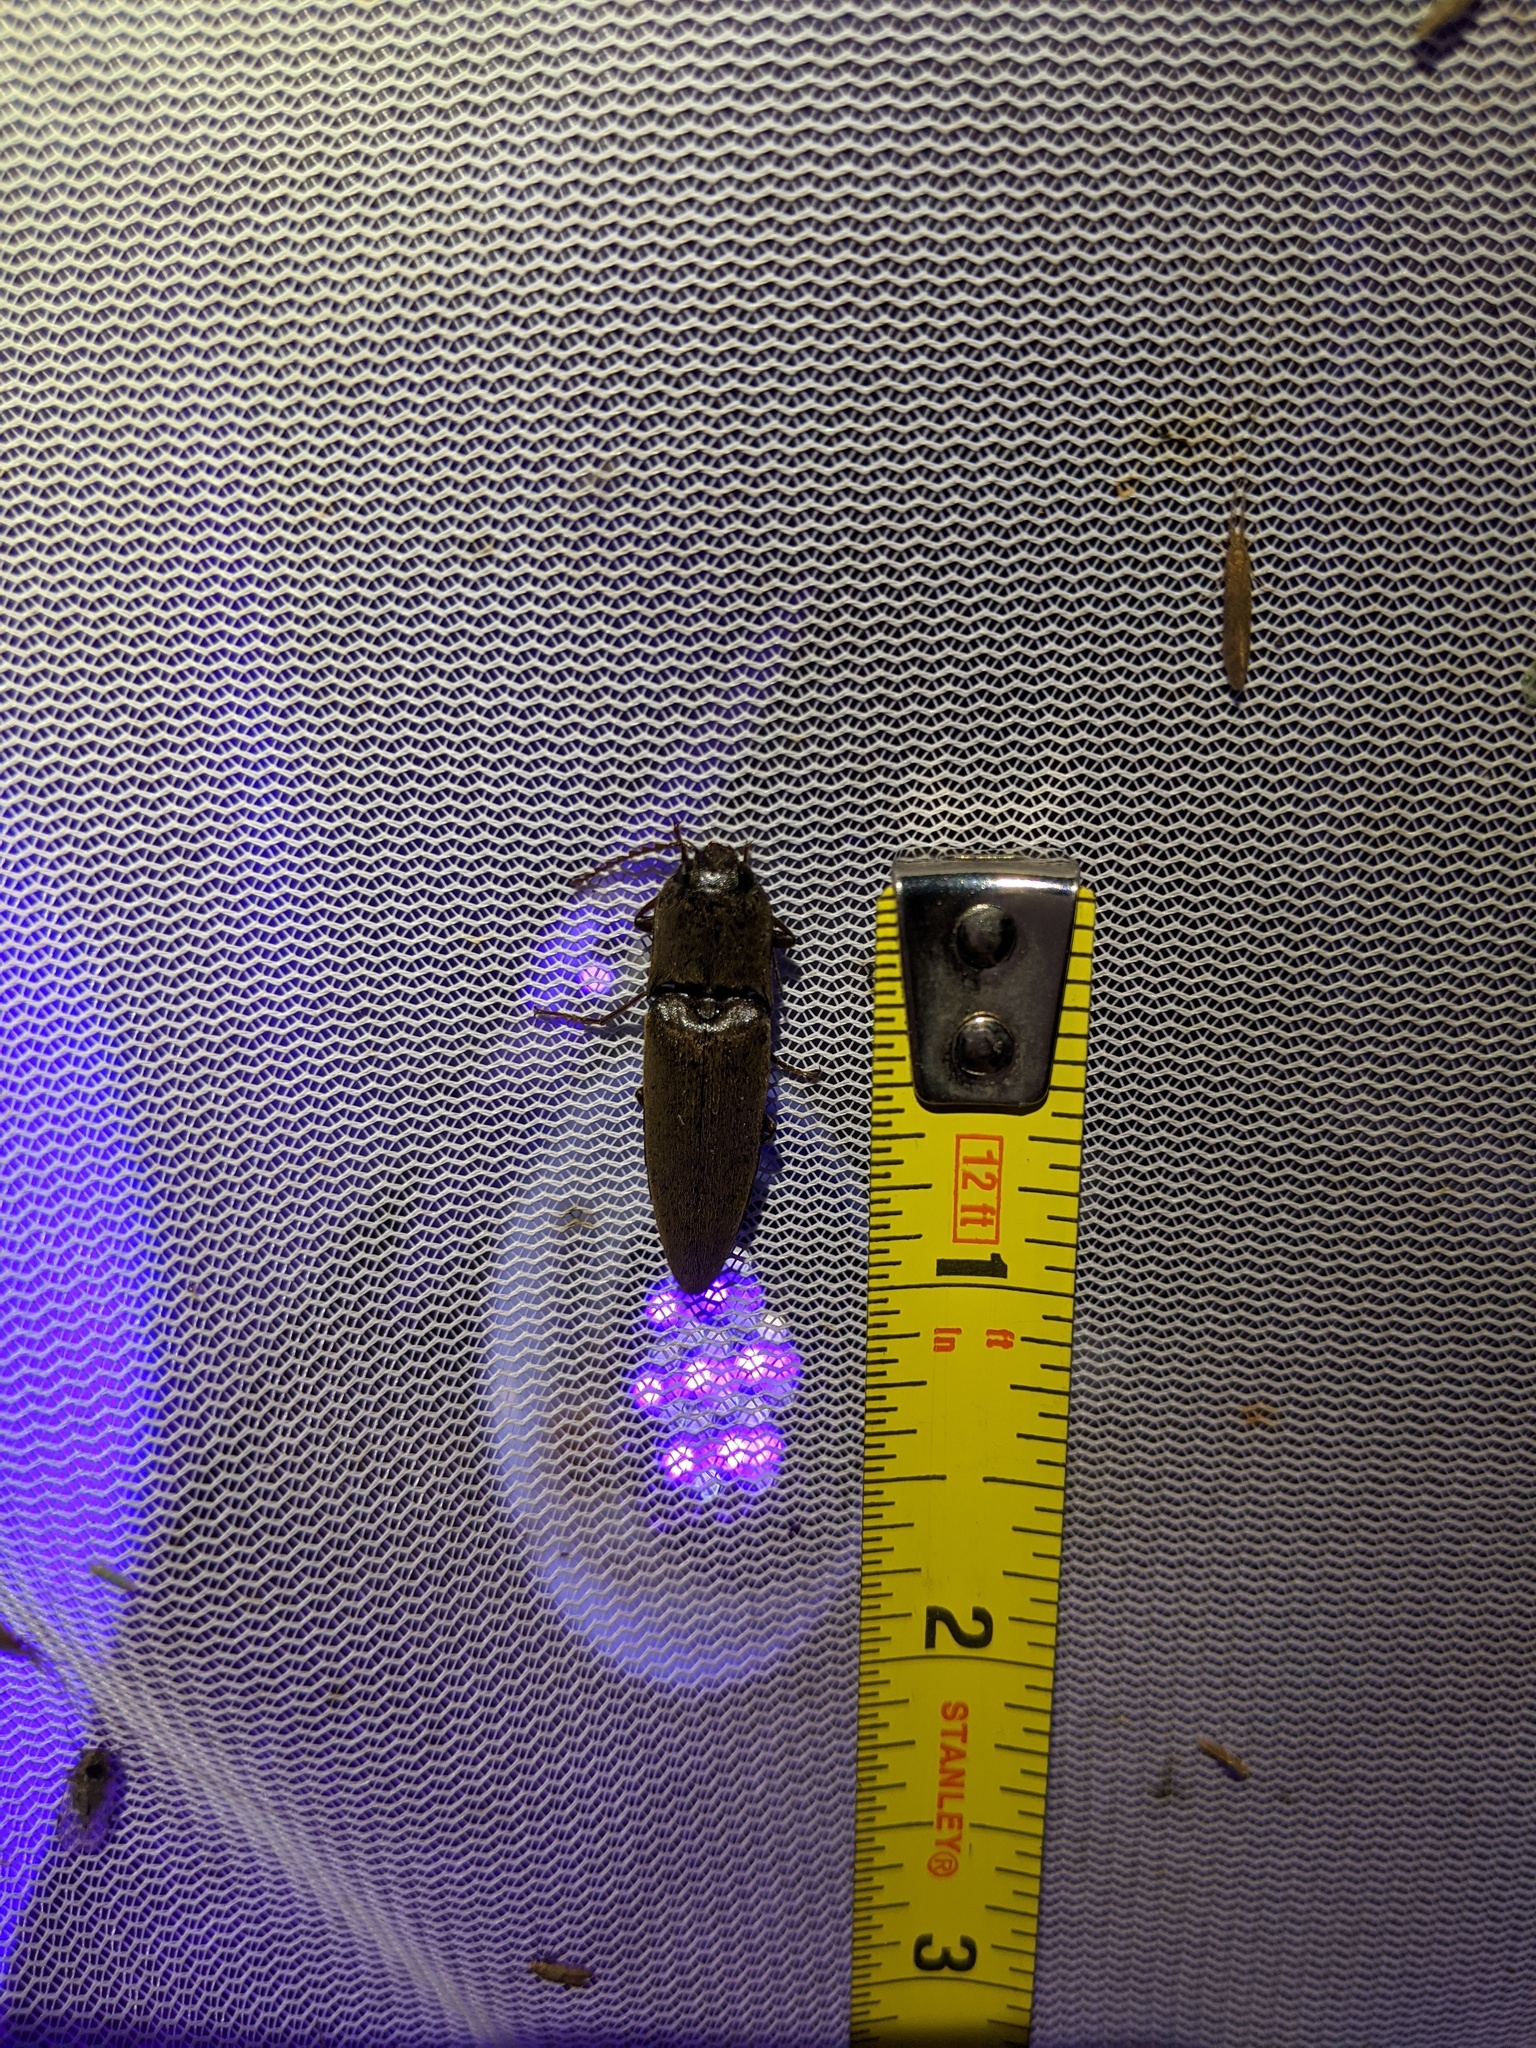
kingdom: Animalia
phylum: Arthropoda
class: Insecta
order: Coleoptera
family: Elateridae
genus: Orthostethus
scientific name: Orthostethus infuscatus
